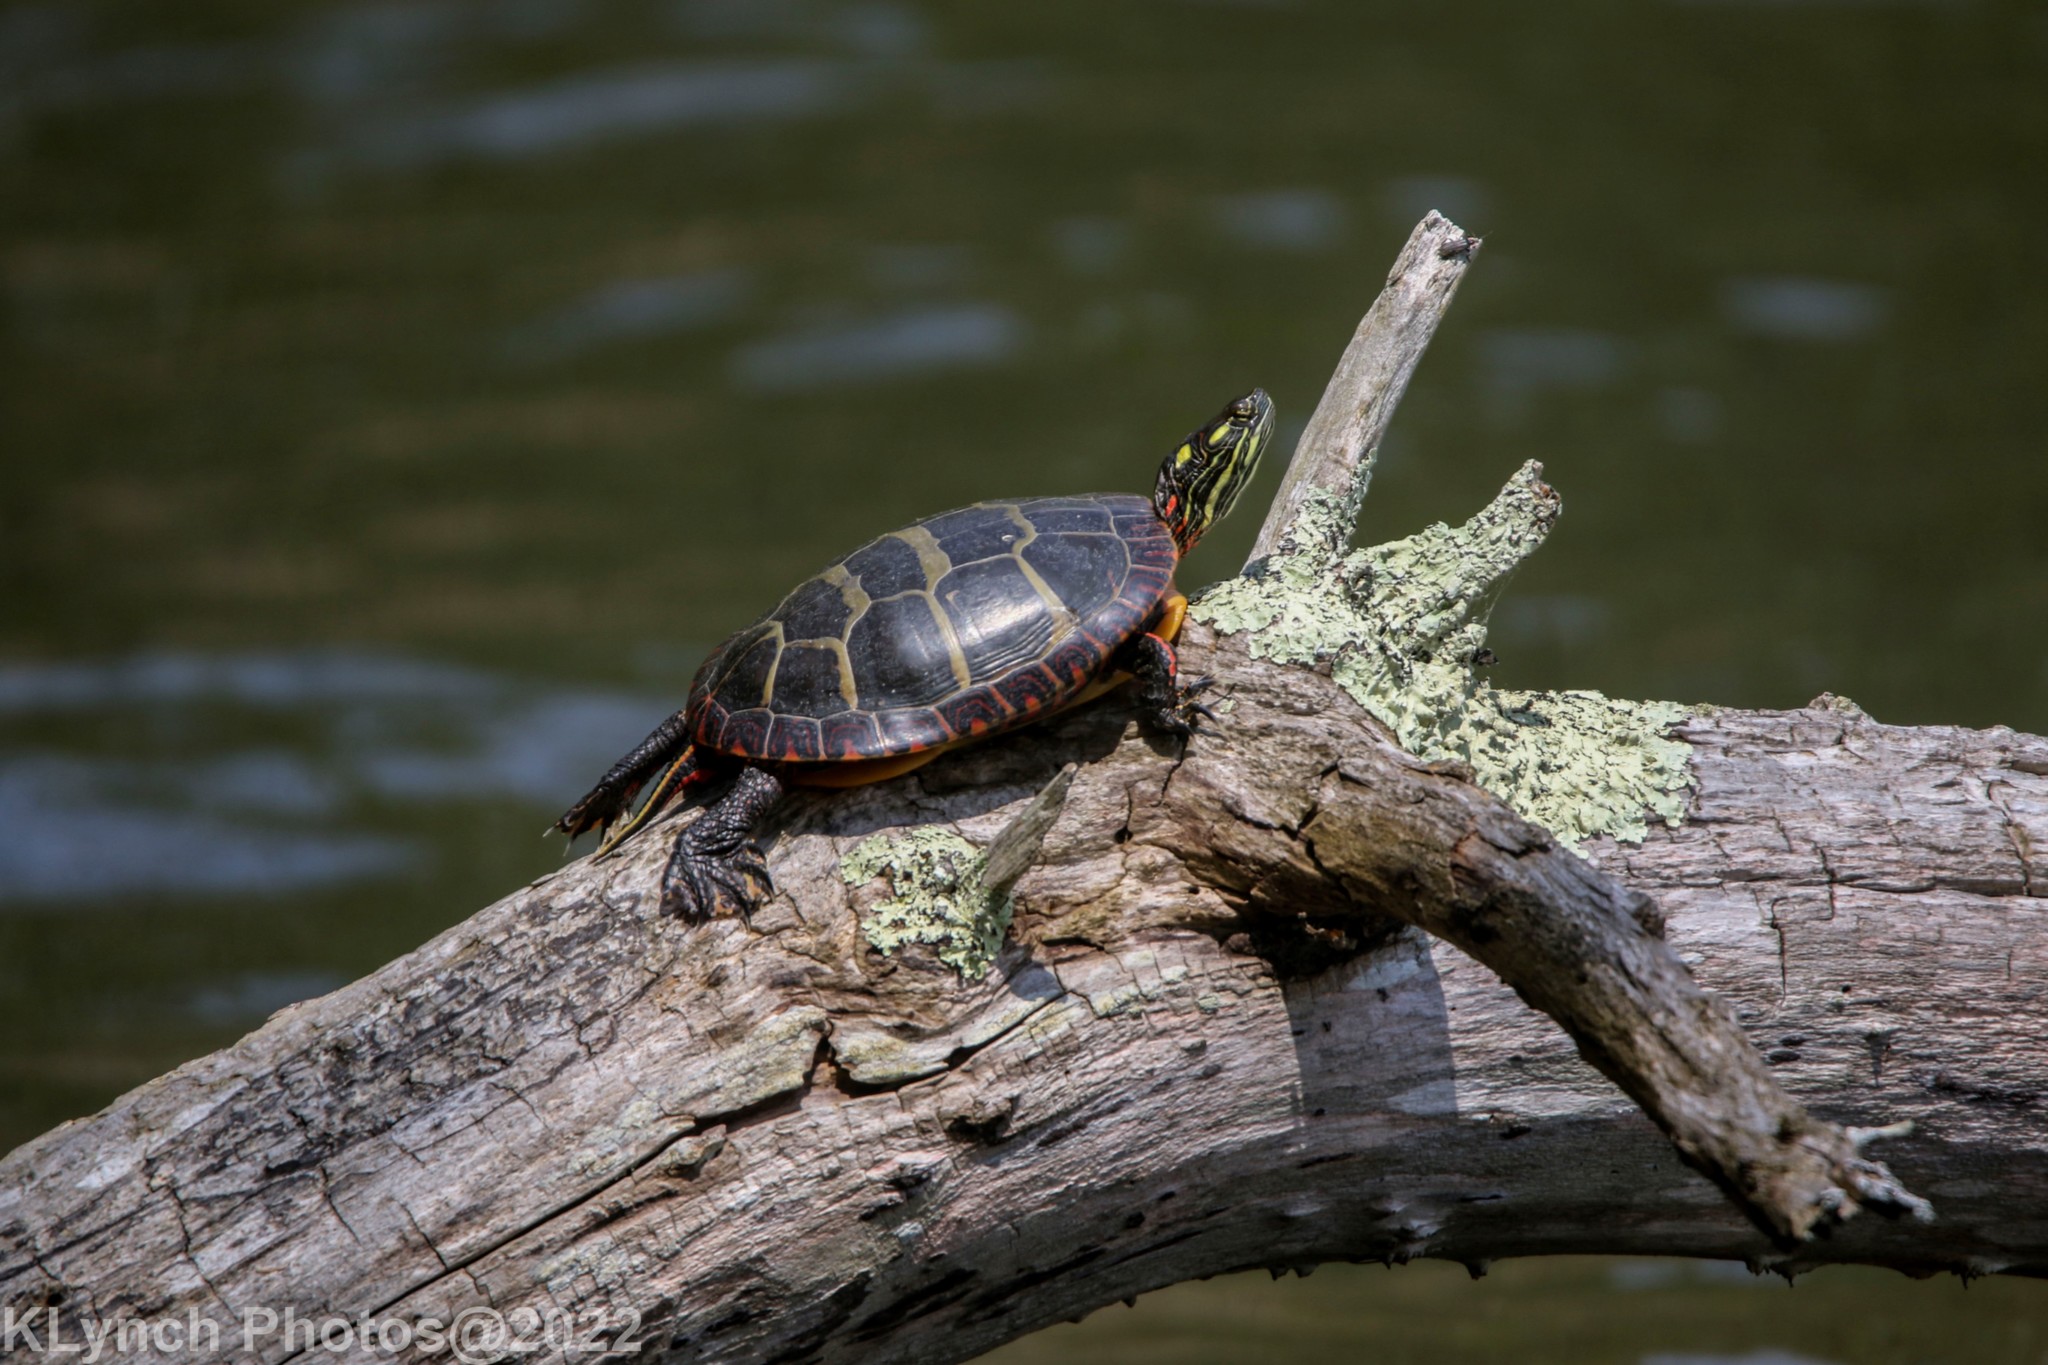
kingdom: Animalia
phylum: Chordata
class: Testudines
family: Emydidae
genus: Chrysemys
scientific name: Chrysemys picta
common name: Painted turtle
